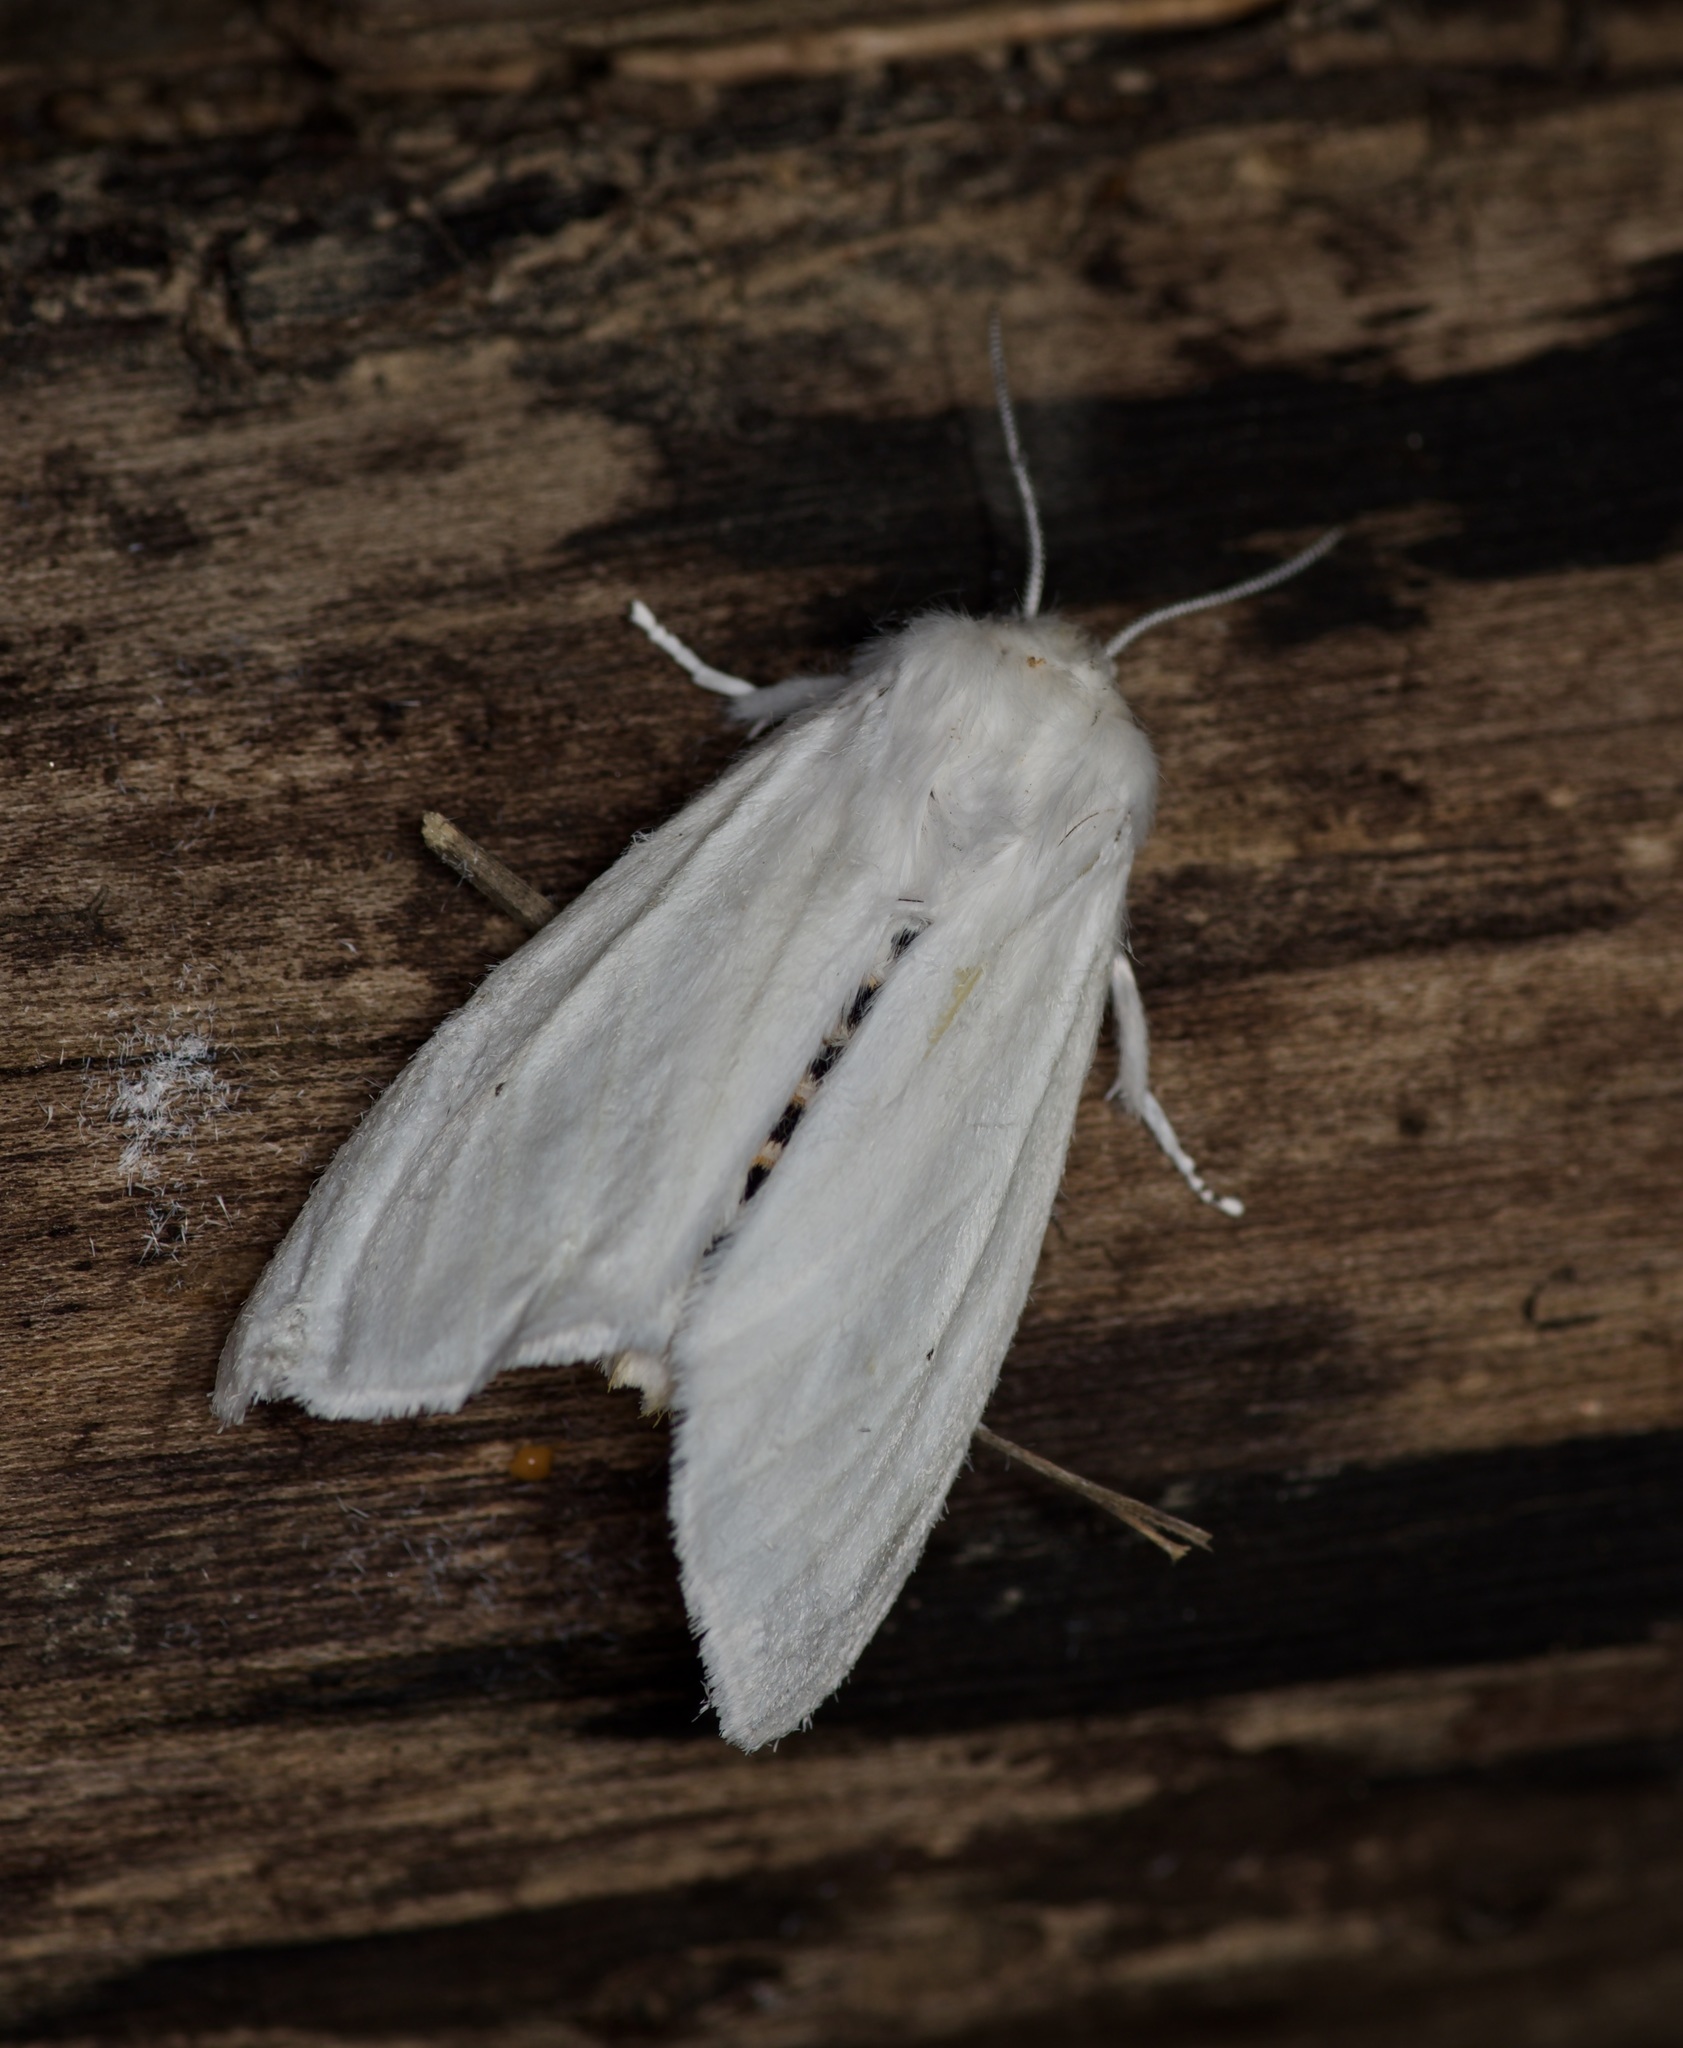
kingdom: Animalia
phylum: Arthropoda
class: Insecta
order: Lepidoptera
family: Erebidae
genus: Spilosoma
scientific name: Spilosoma virginica
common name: Virginia tiger moth
